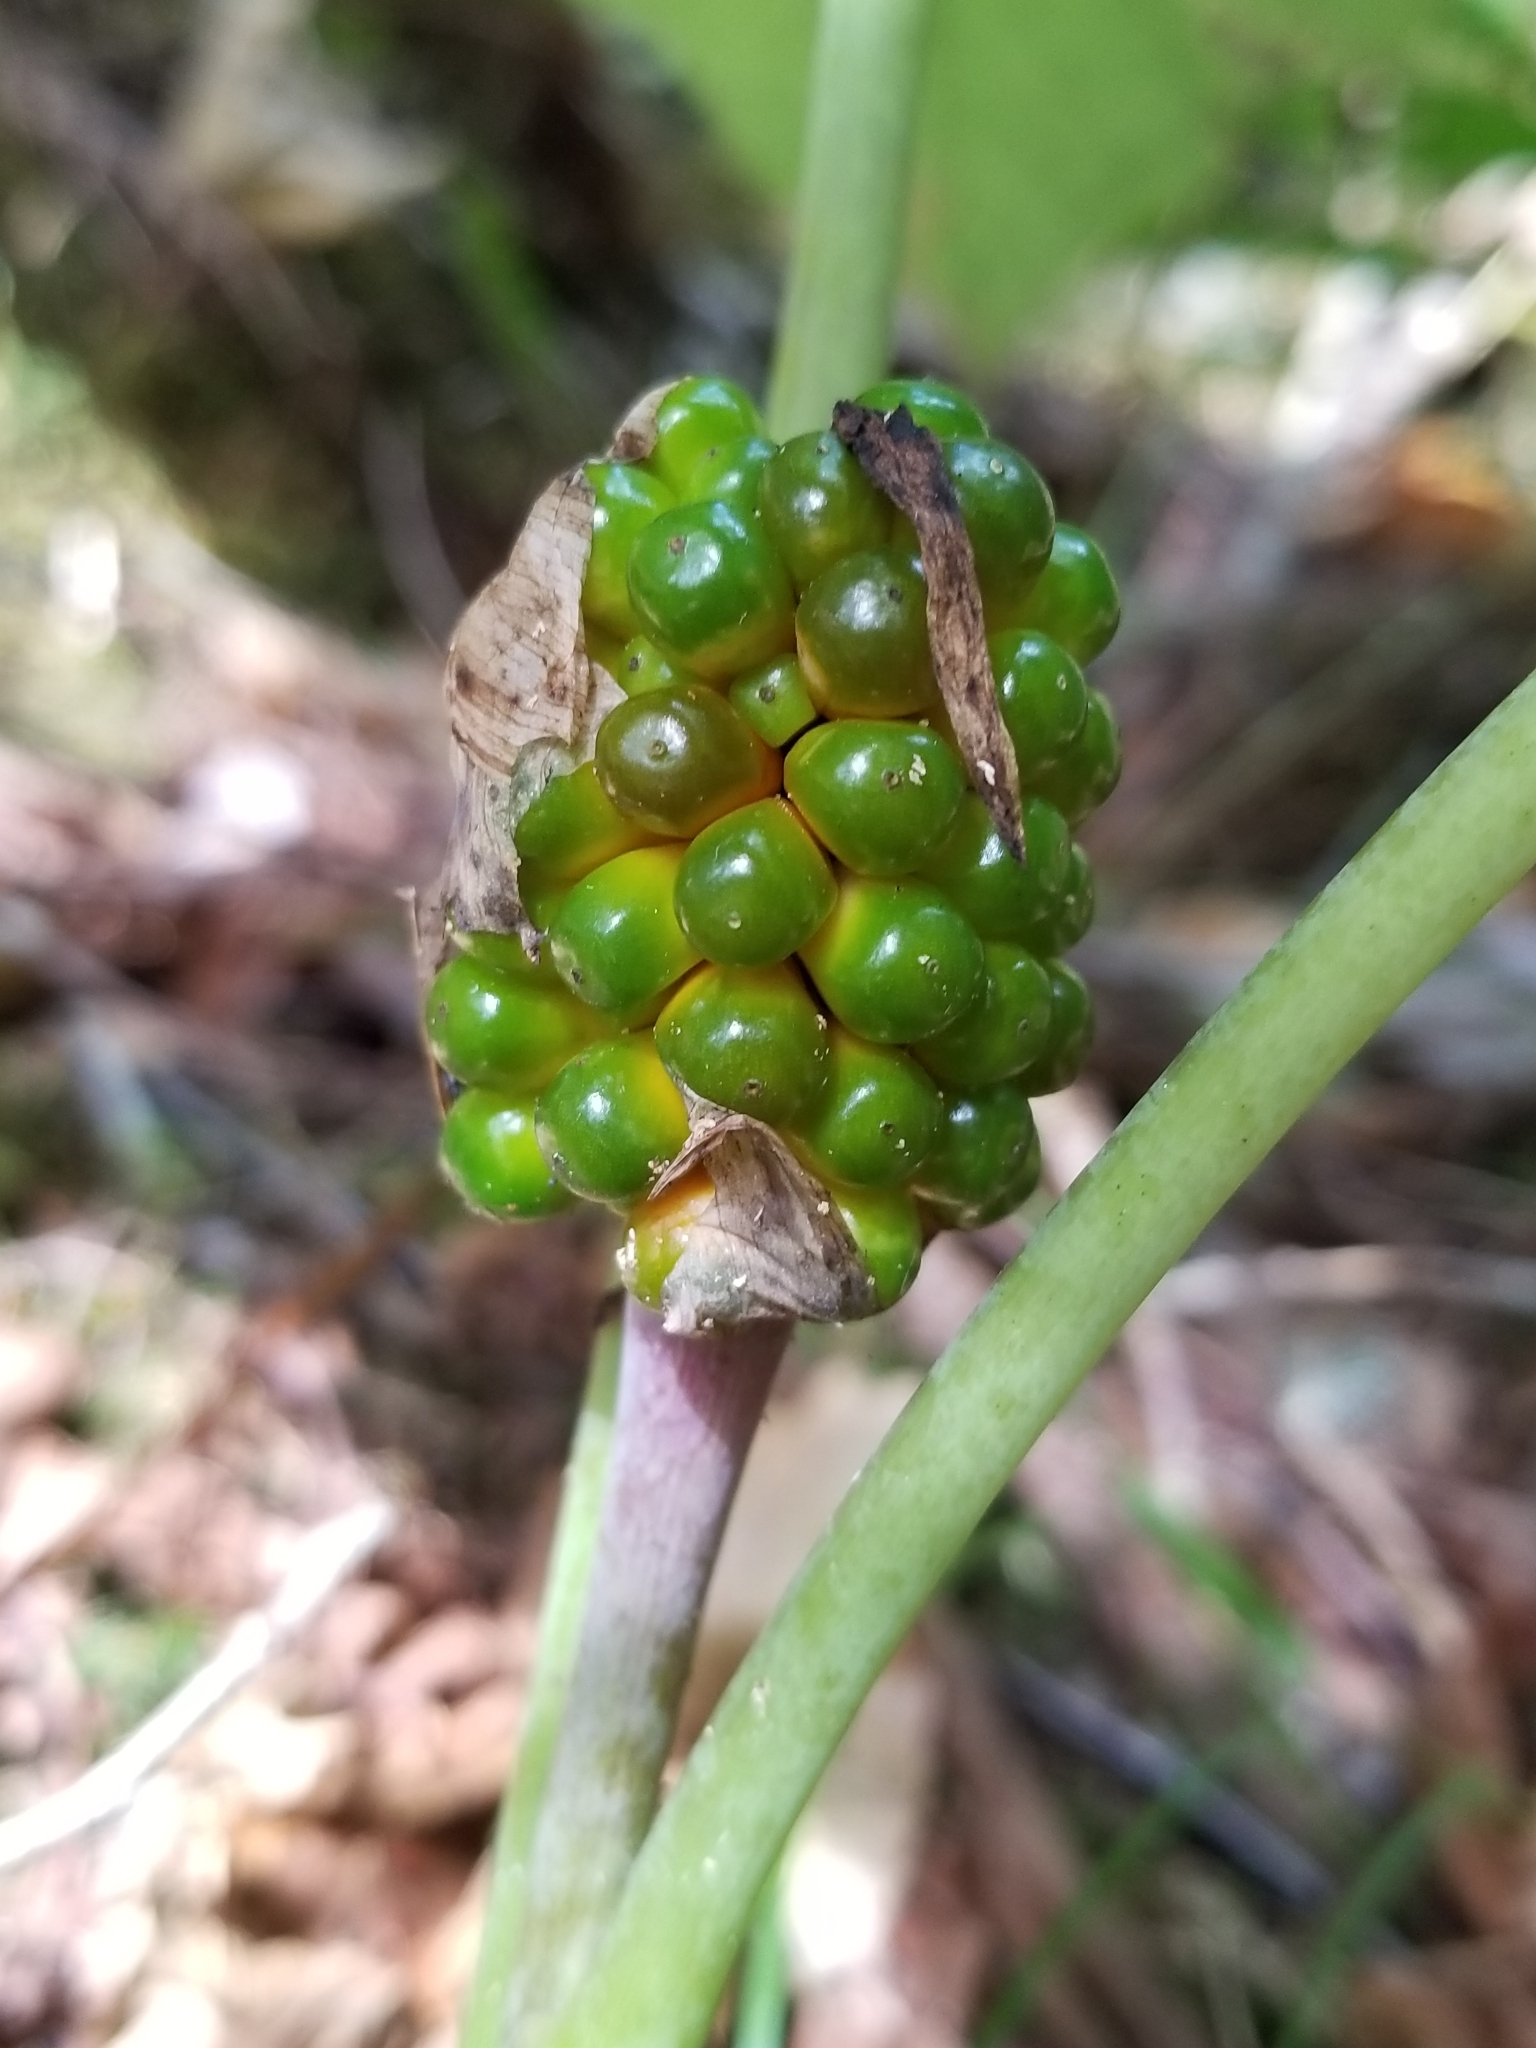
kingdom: Plantae
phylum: Tracheophyta
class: Liliopsida
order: Alismatales
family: Araceae
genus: Arisaema
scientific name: Arisaema triphyllum
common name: Jack-in-the-pulpit
